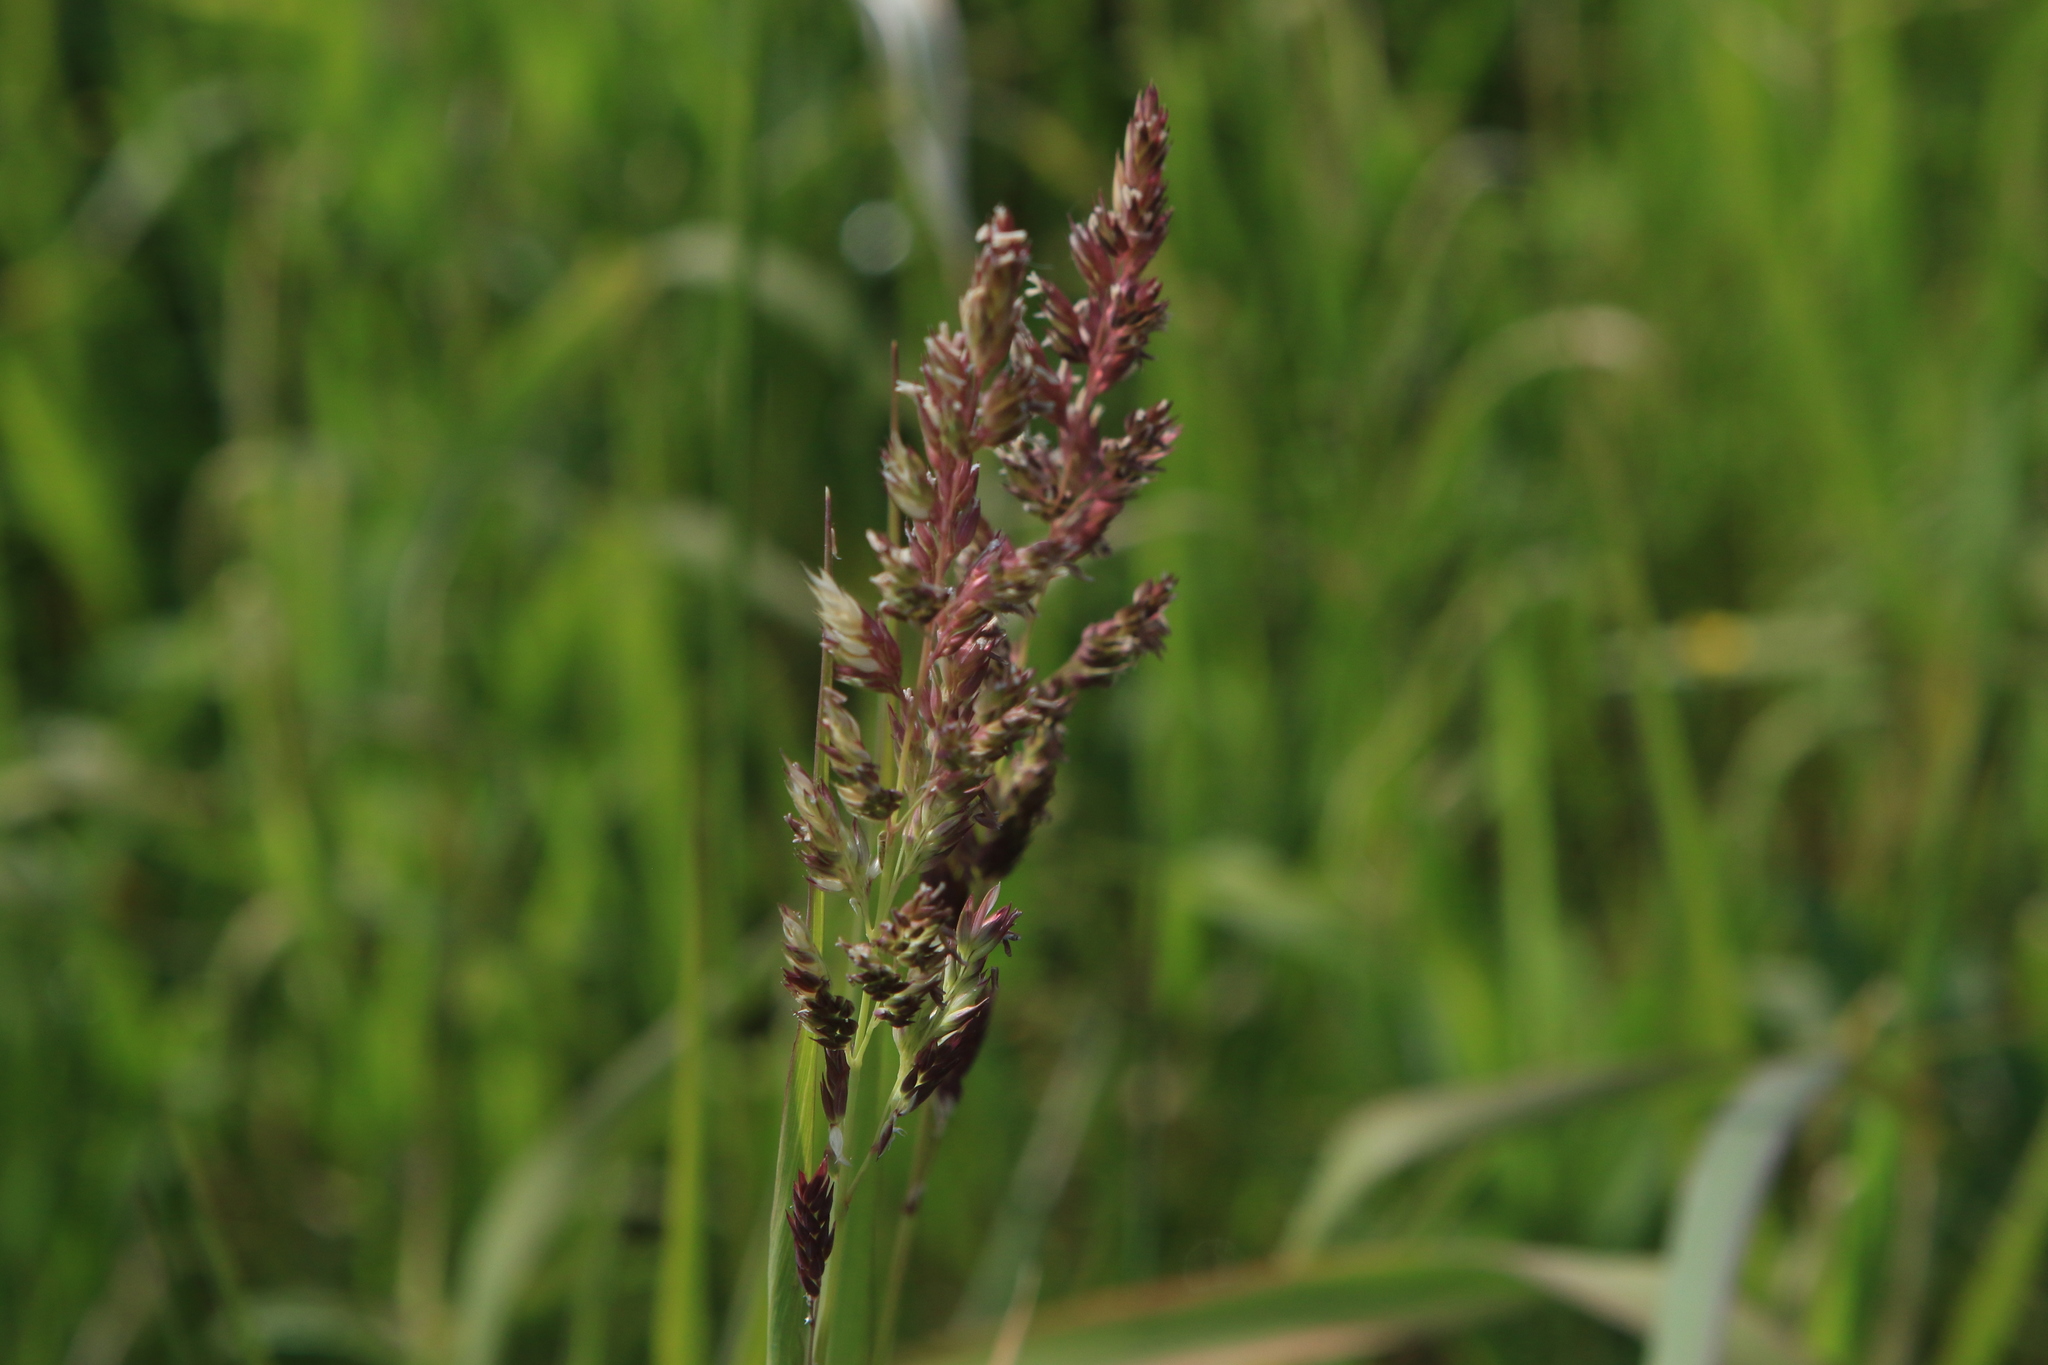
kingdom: Plantae
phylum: Tracheophyta
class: Liliopsida
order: Poales
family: Poaceae
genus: Phalaris
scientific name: Phalaris arundinacea
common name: Reed canary-grass
